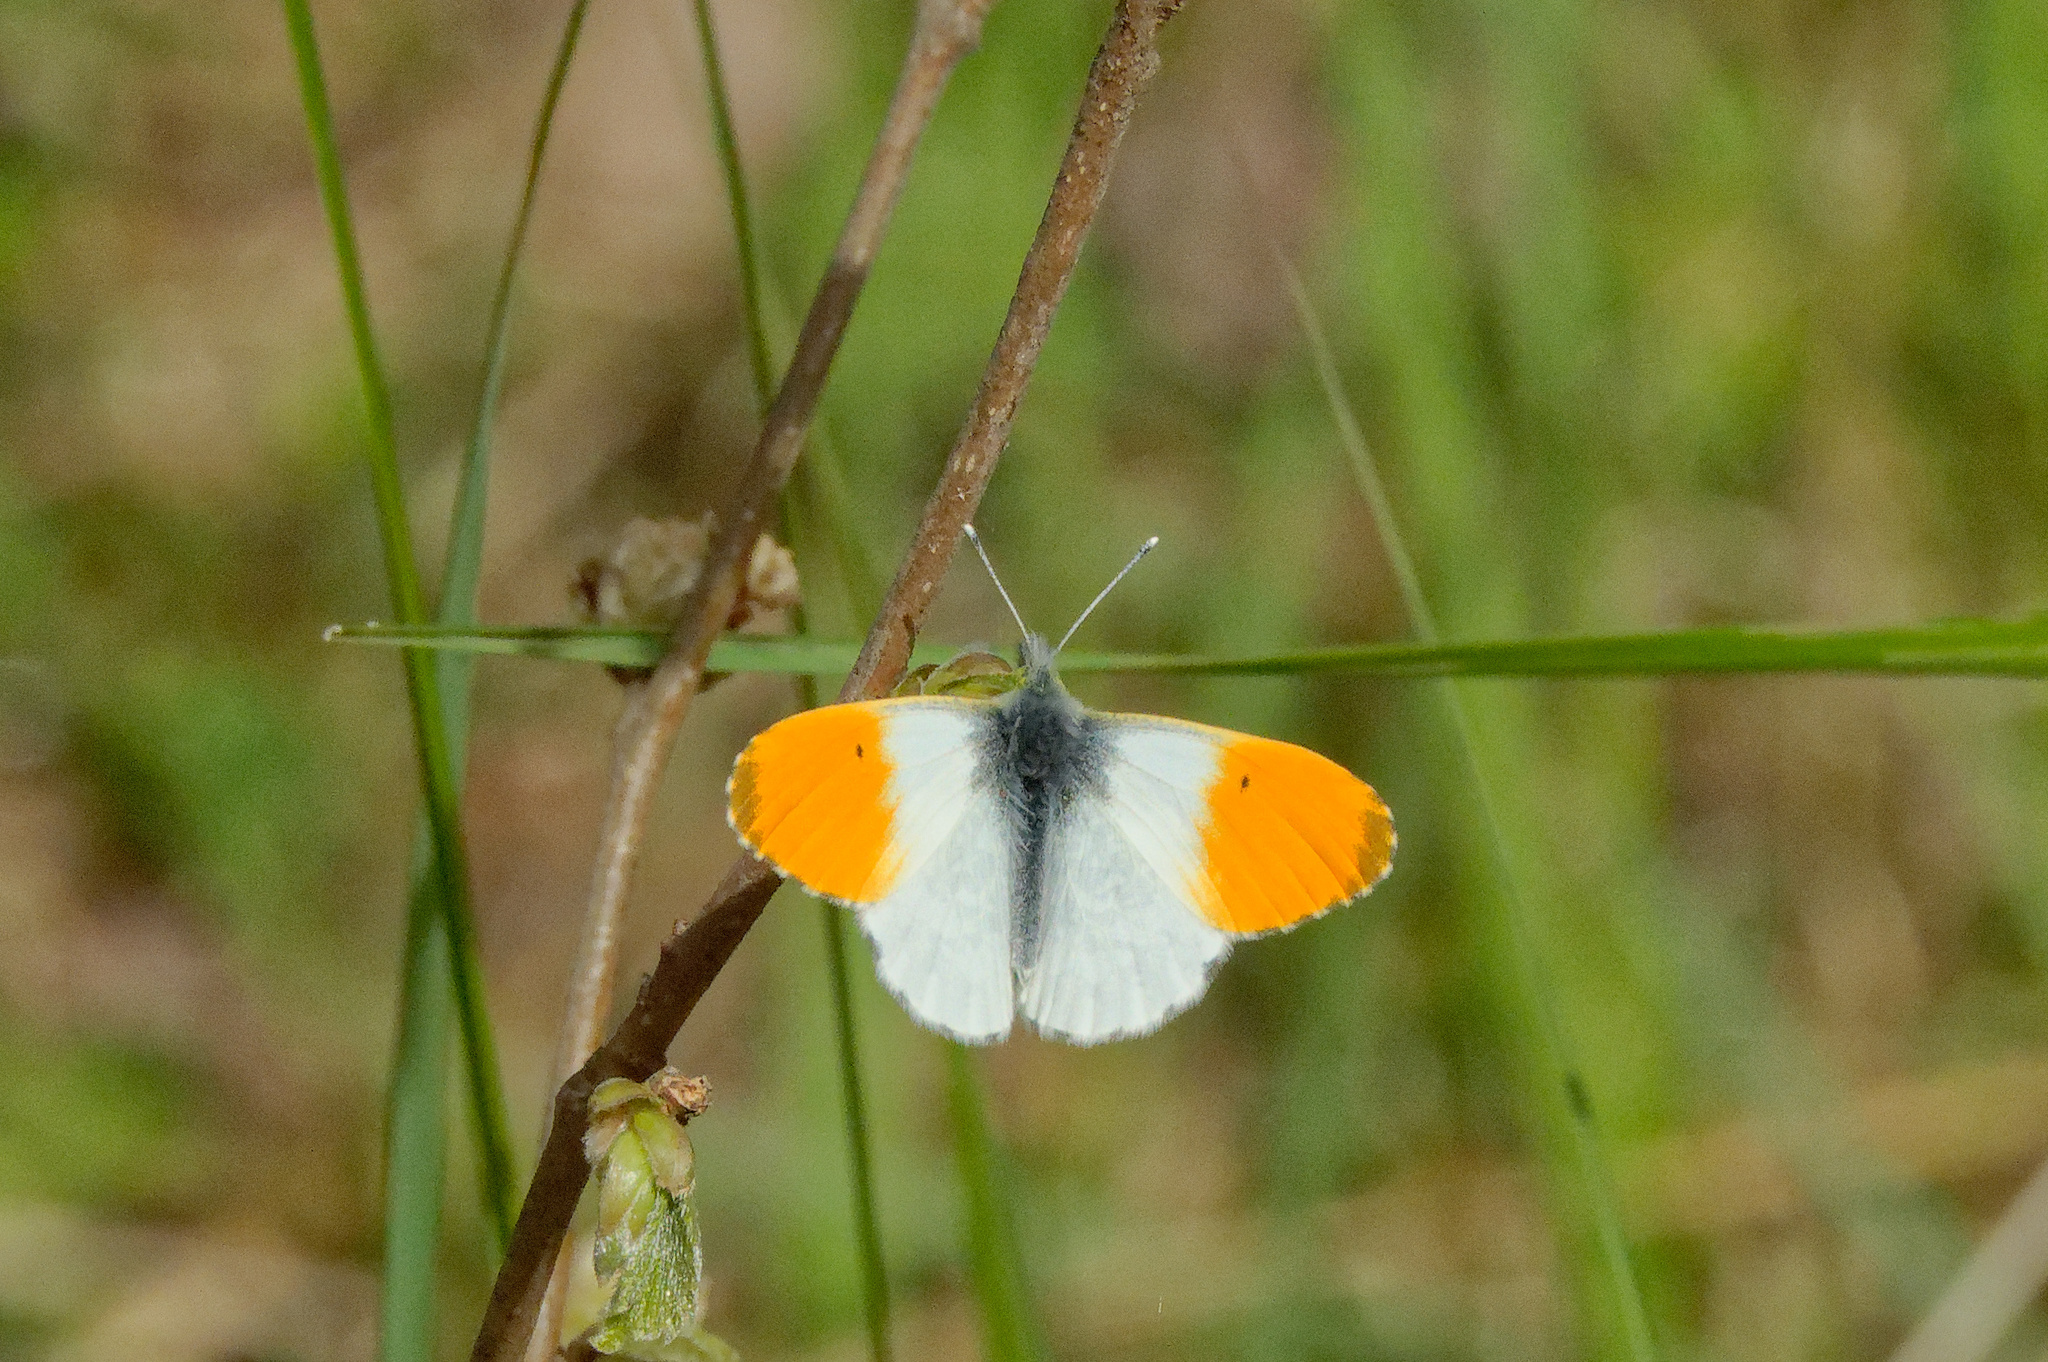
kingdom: Animalia
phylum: Arthropoda
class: Insecta
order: Lepidoptera
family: Pieridae
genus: Anthocharis
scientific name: Anthocharis cardamines
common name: Orange-tip
